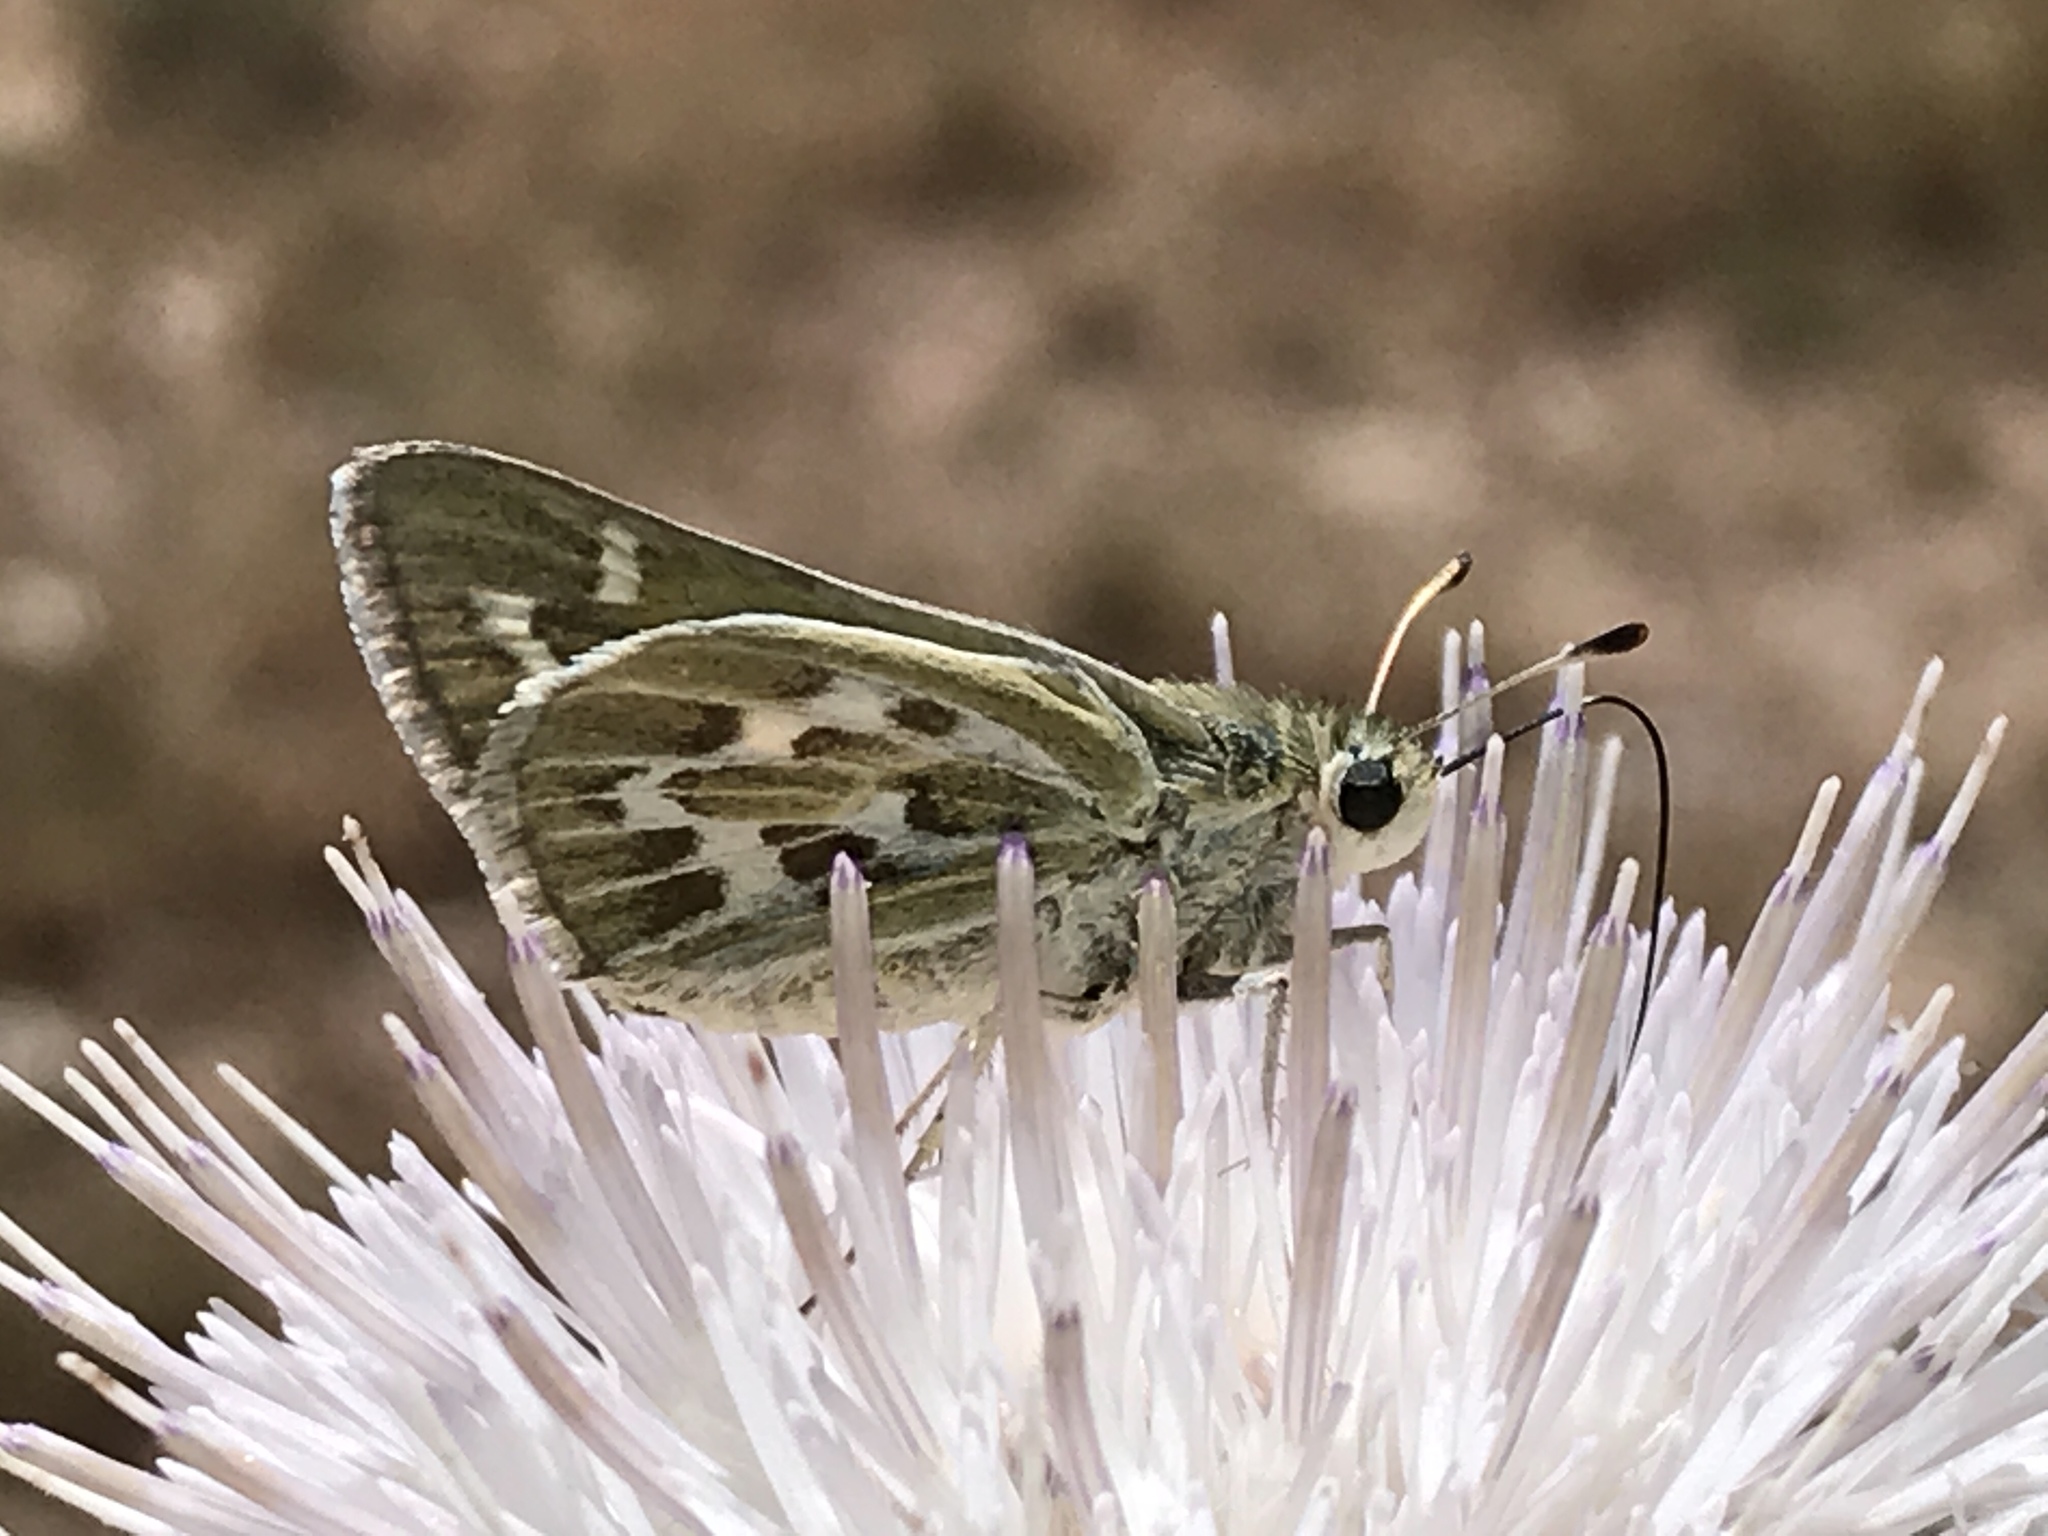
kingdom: Animalia
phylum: Arthropoda
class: Insecta
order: Lepidoptera
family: Hesperiidae
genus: Hesperia
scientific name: Hesperia uncas
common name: Uncas skipper
